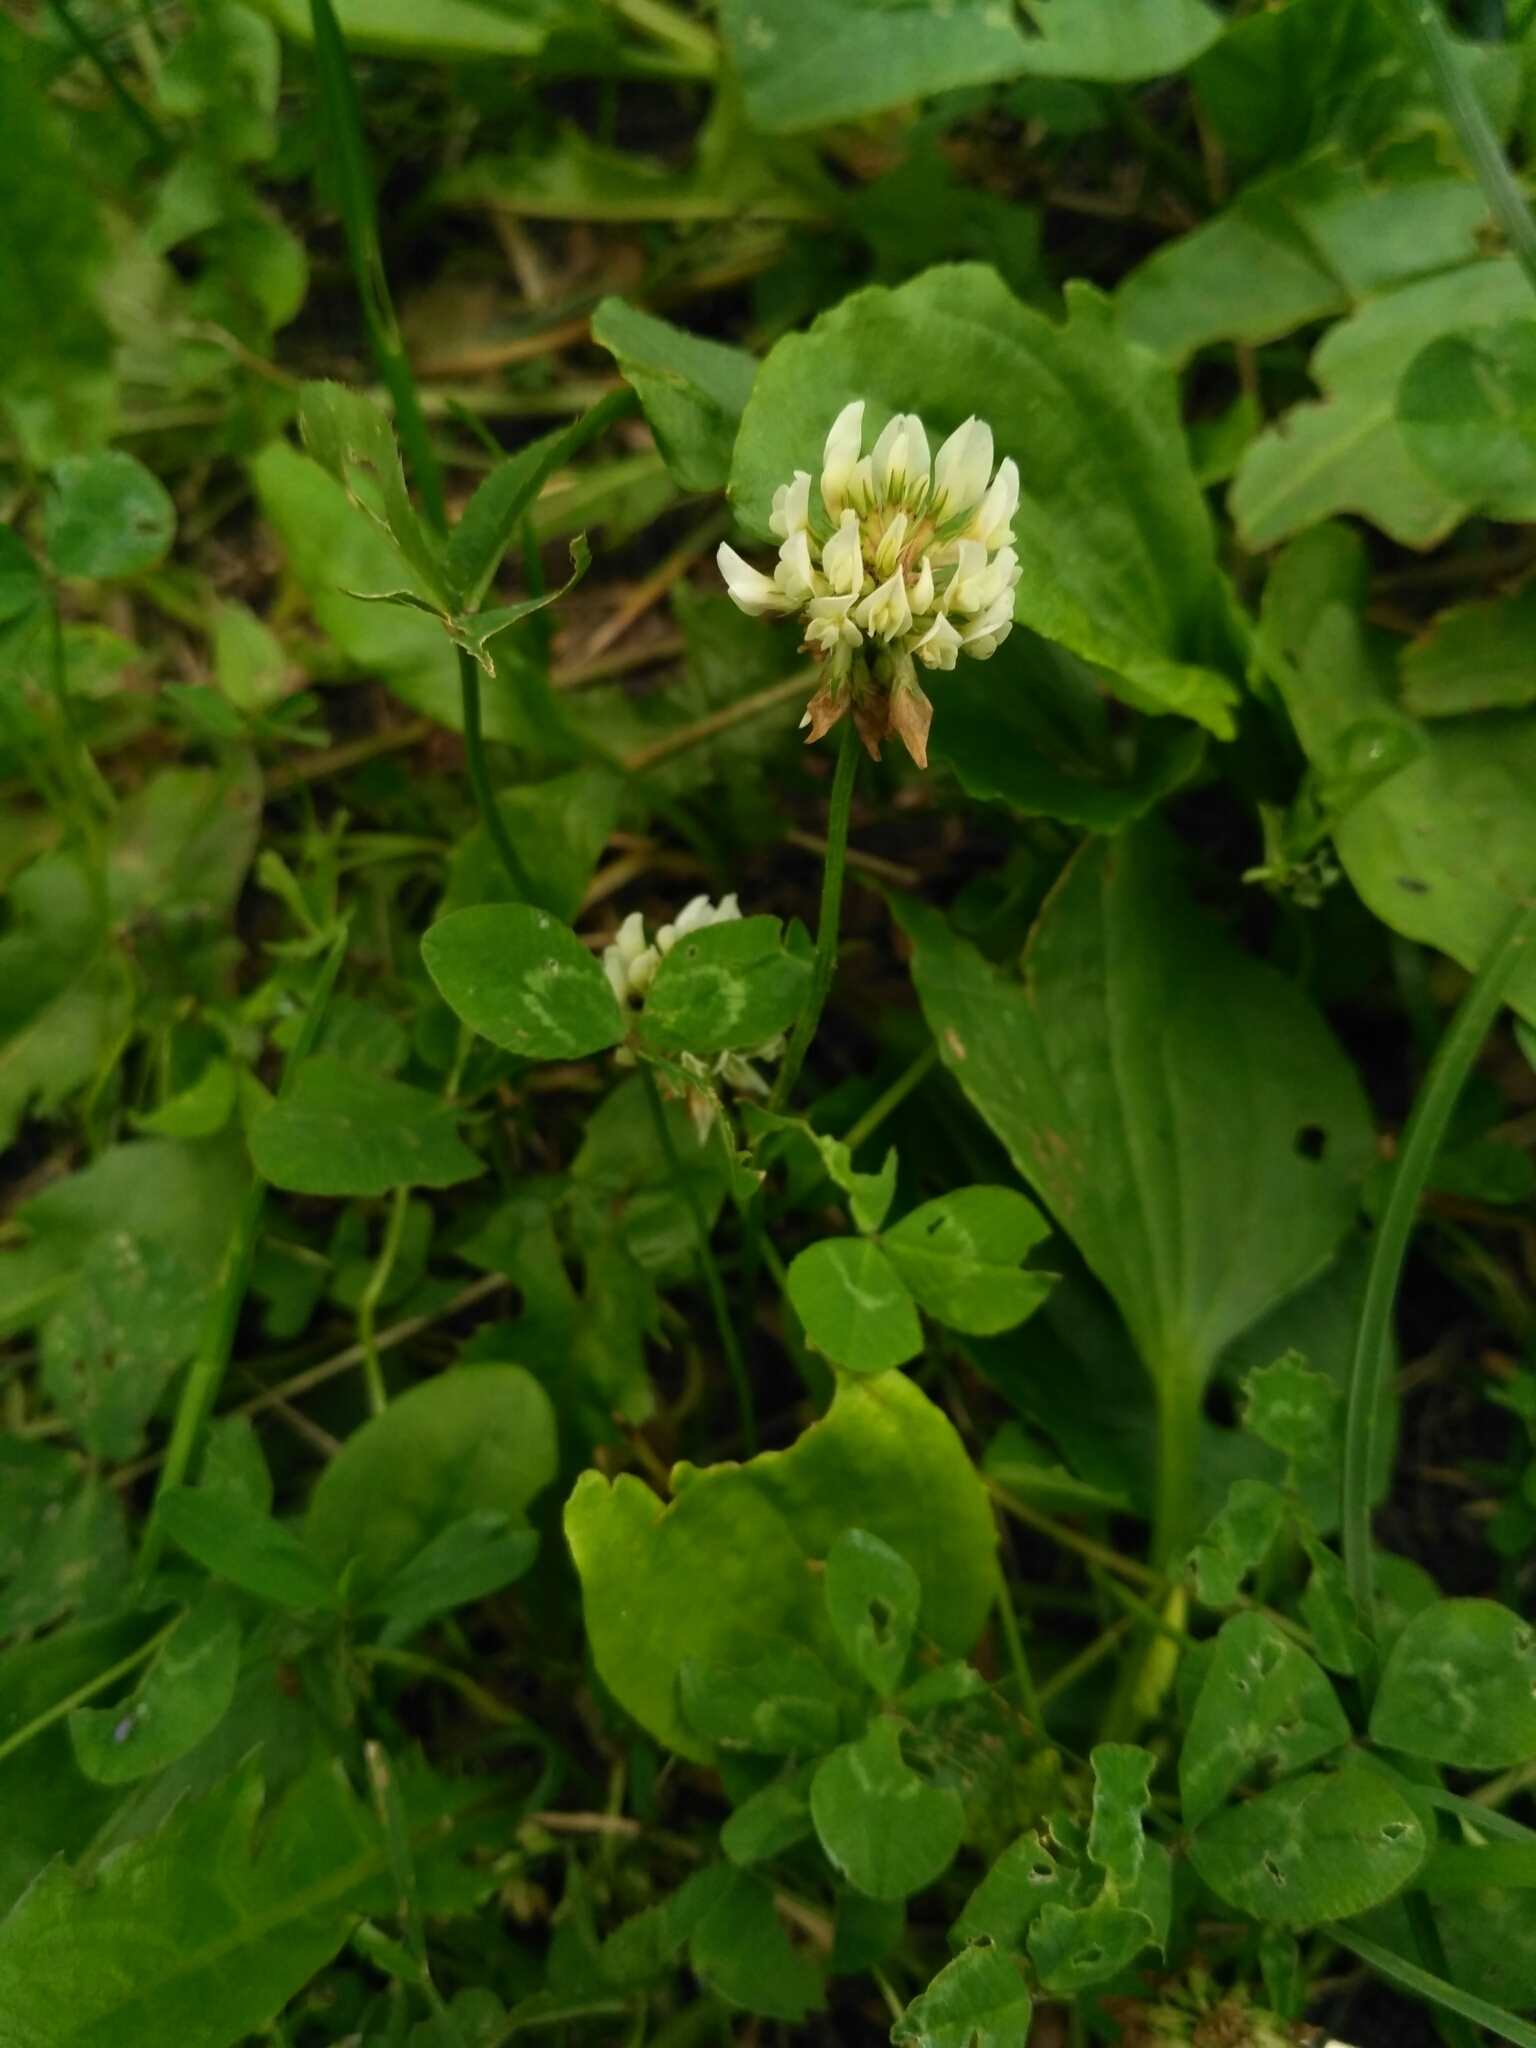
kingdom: Plantae
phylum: Tracheophyta
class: Magnoliopsida
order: Fabales
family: Fabaceae
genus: Trifolium
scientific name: Trifolium repens
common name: White clover
